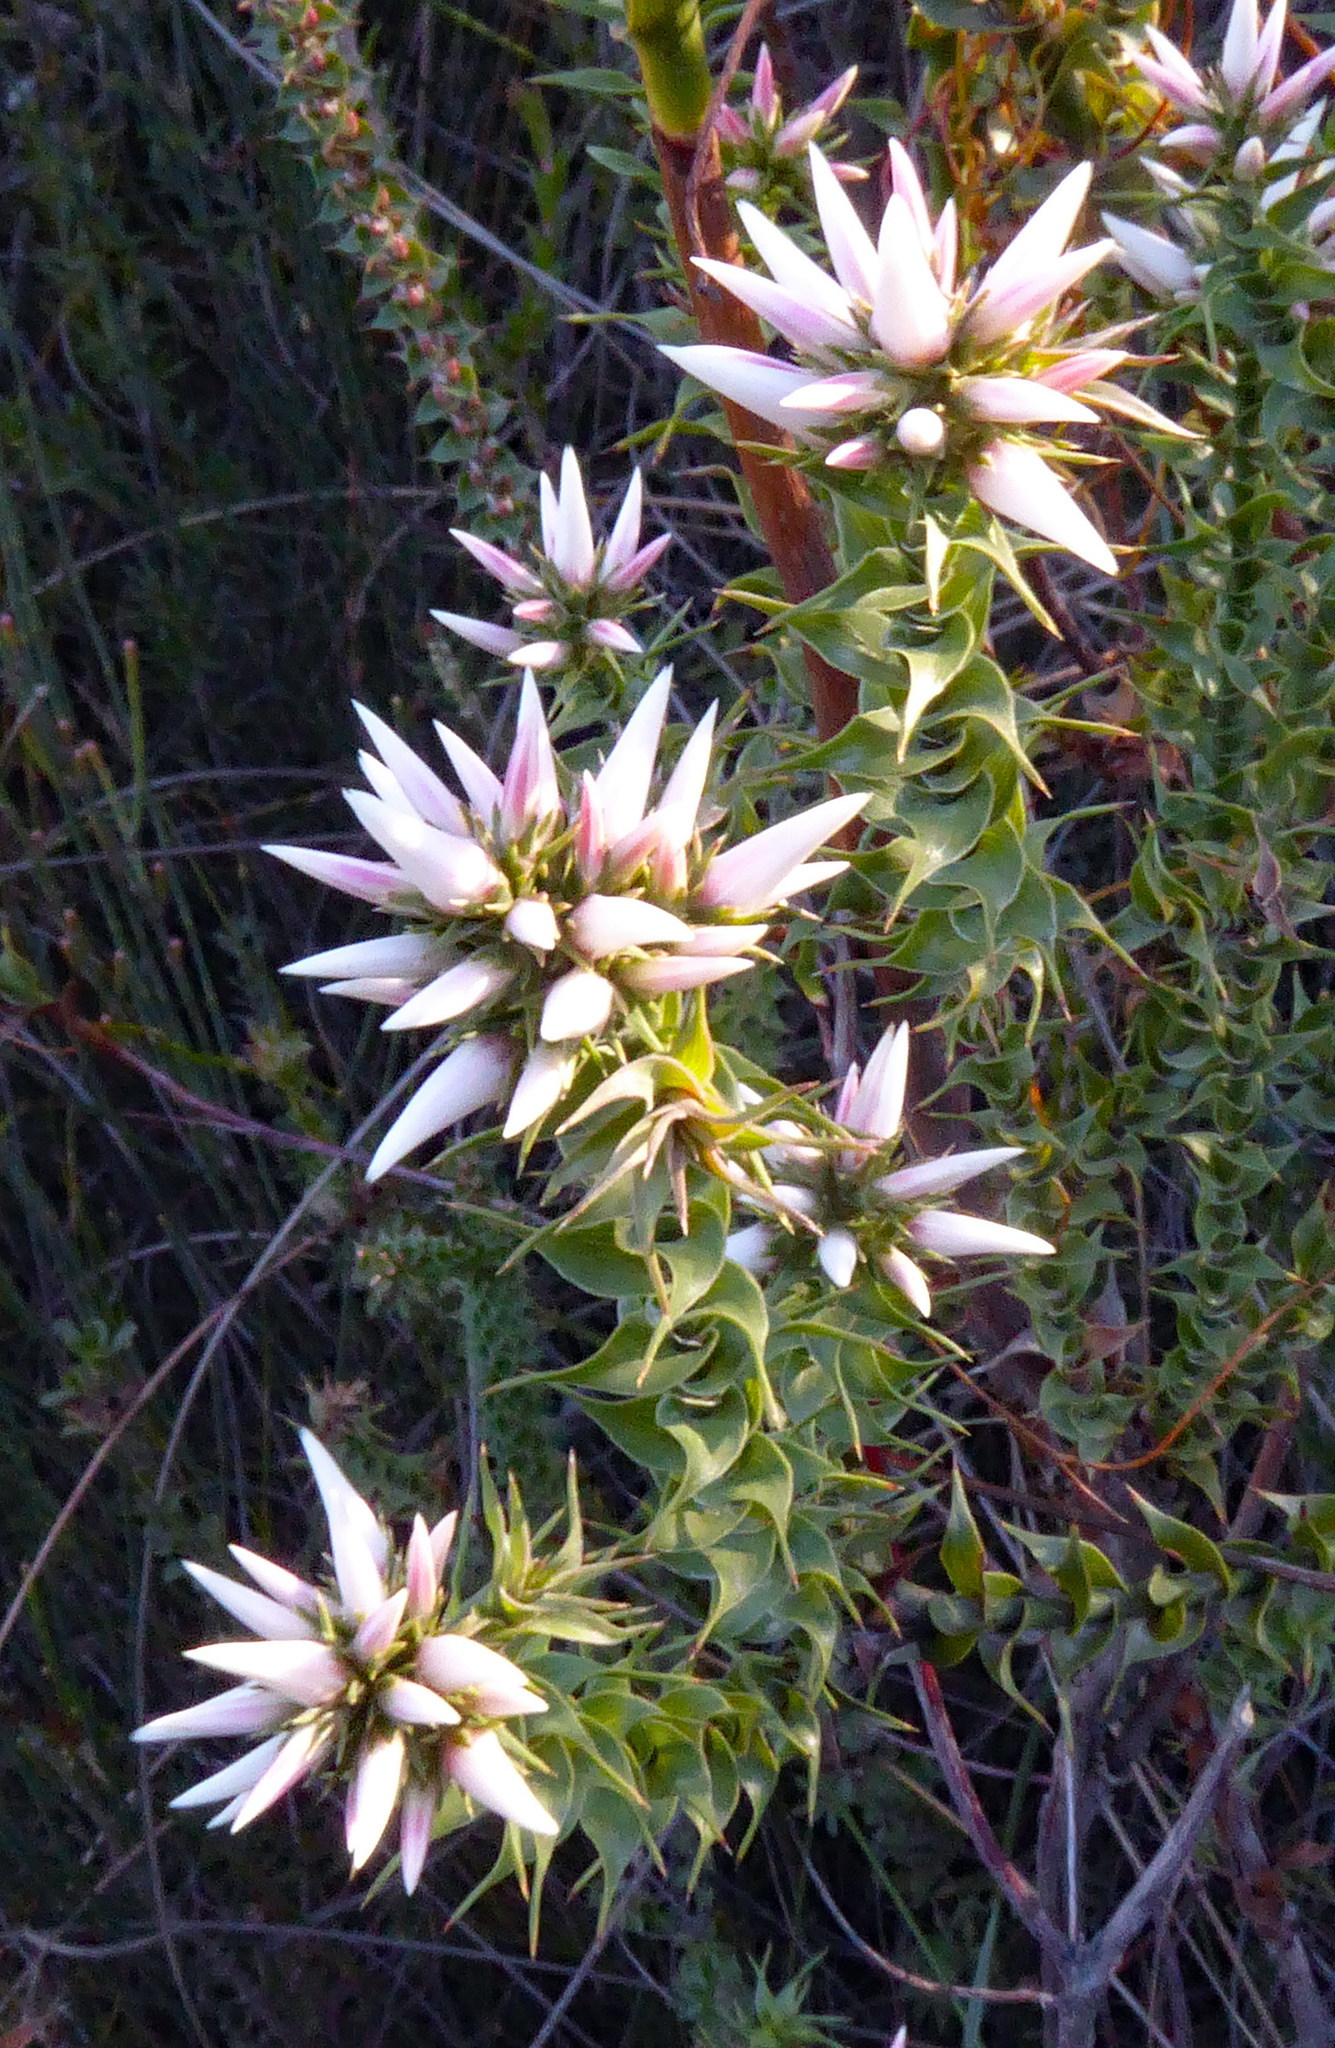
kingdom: Plantae
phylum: Tracheophyta
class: Magnoliopsida
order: Ericales
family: Ericaceae
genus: Sprengelia
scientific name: Sprengelia incarnata
